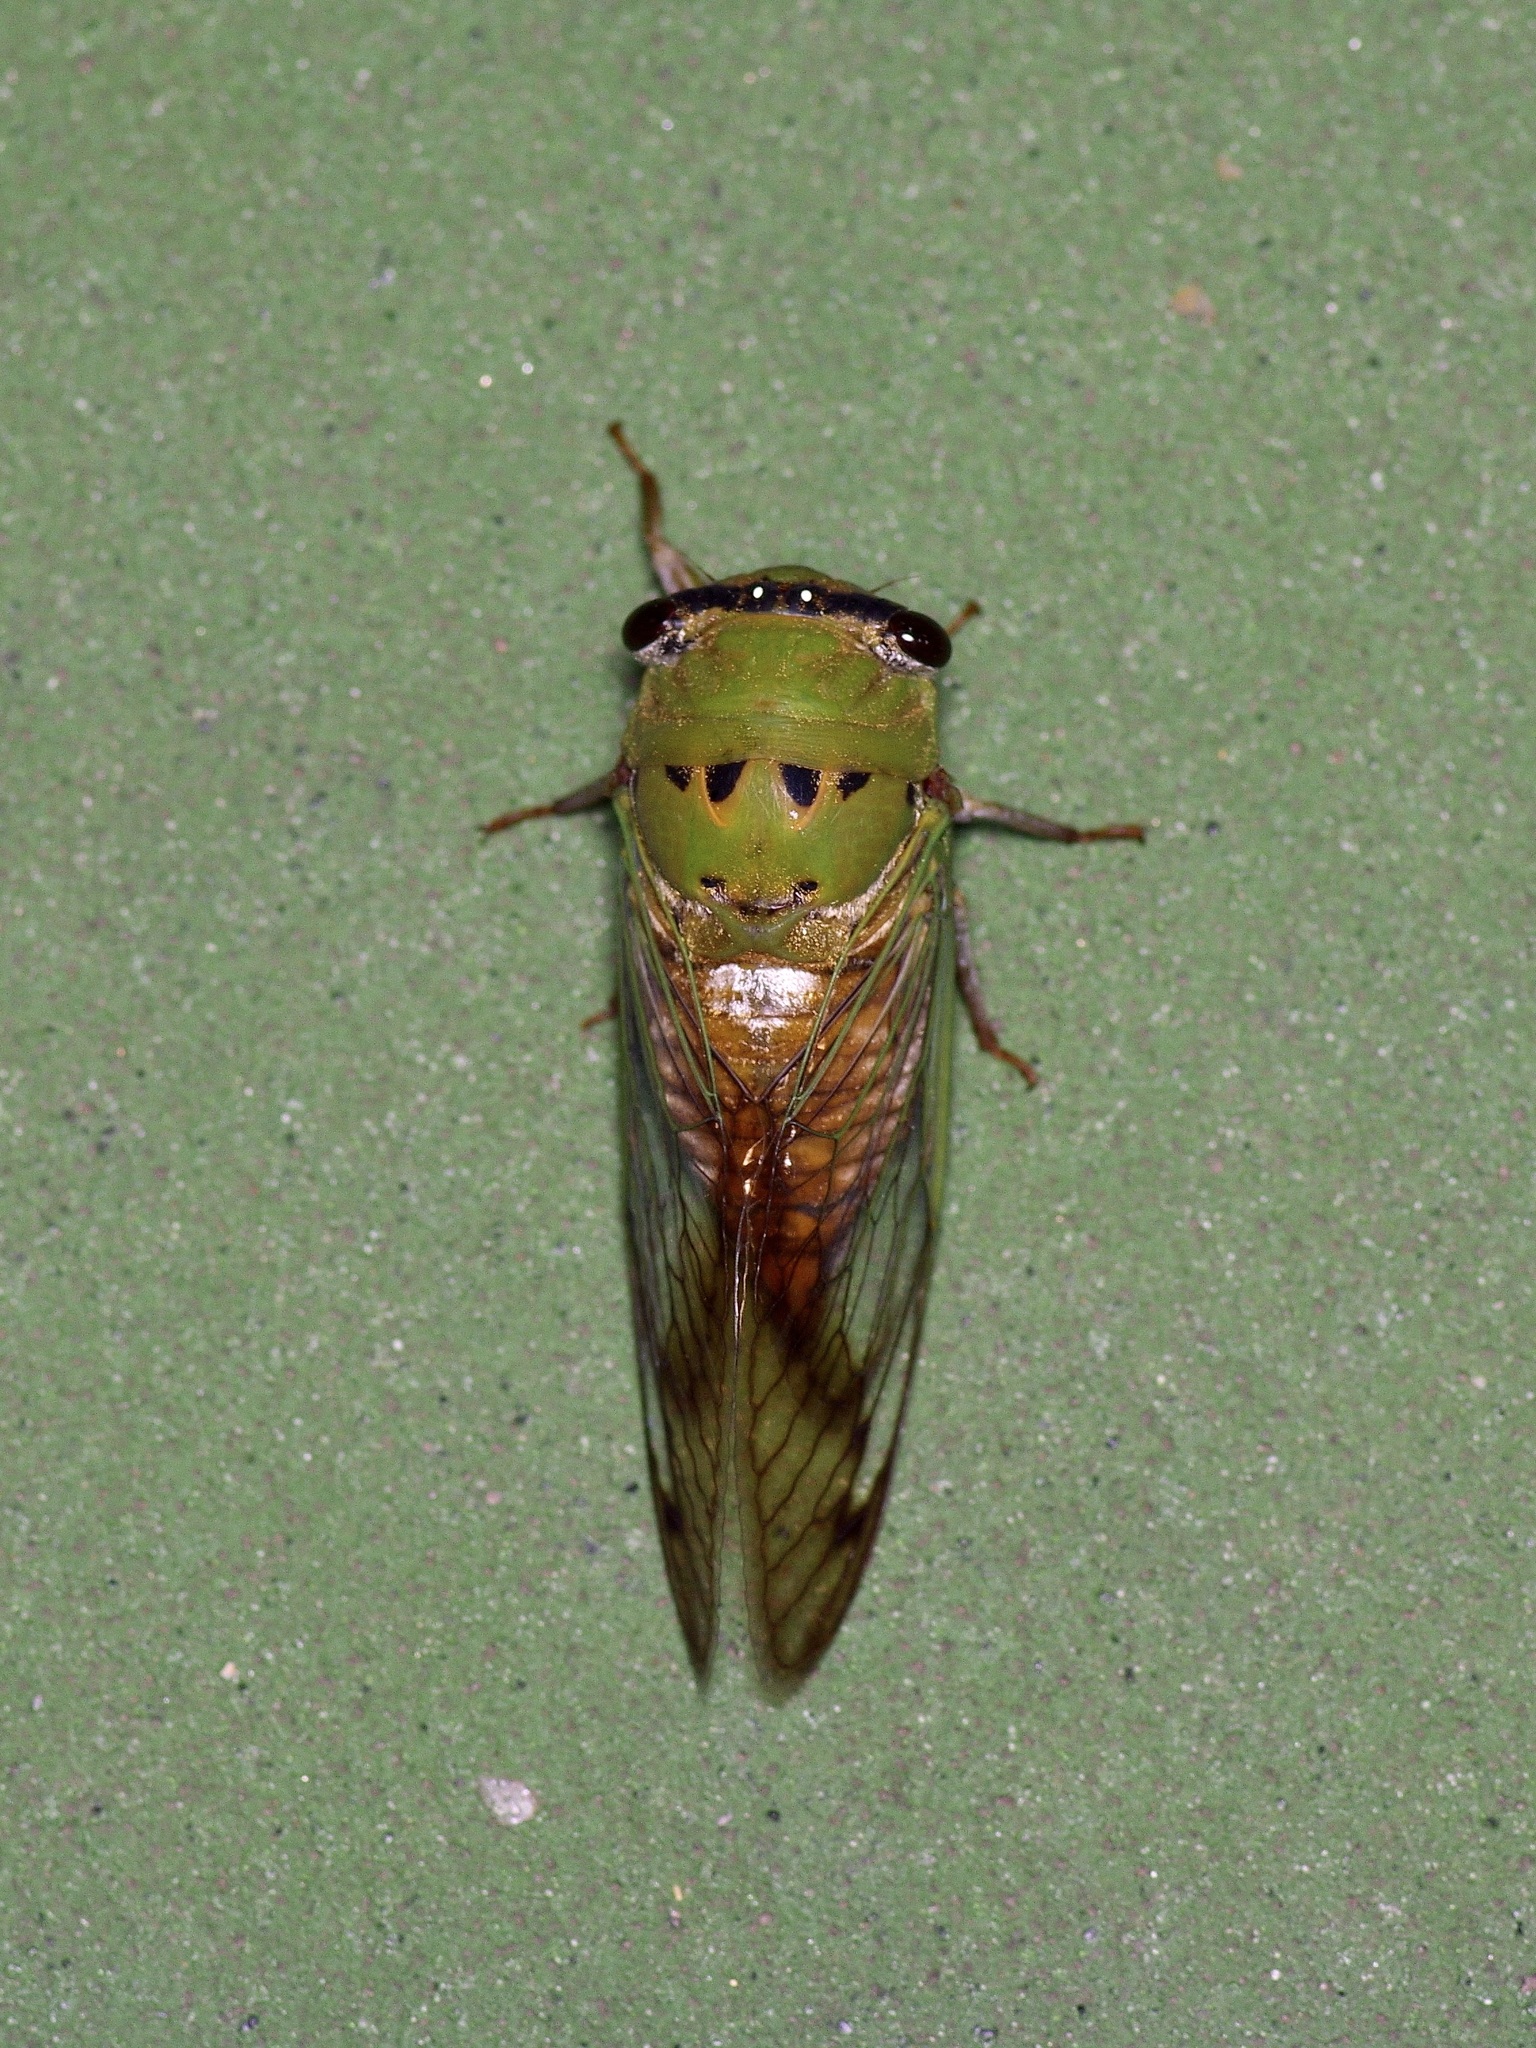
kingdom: Animalia
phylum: Arthropoda
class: Insecta
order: Hemiptera
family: Cicadidae
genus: Neotibicen
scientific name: Neotibicen superbus
